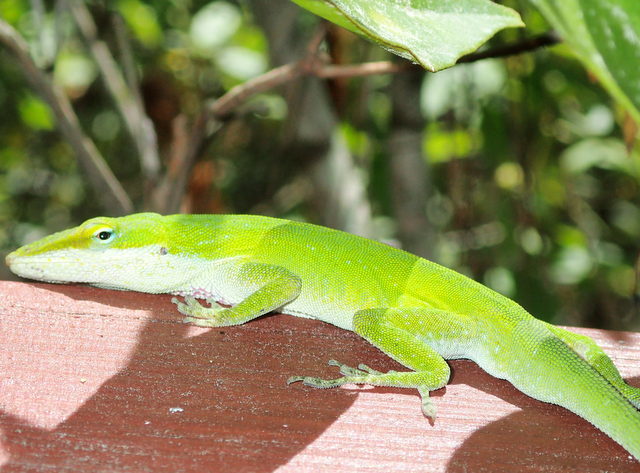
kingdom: Animalia
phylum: Chordata
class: Squamata
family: Dactyloidae
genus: Anolis
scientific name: Anolis carolinensis
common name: Green anole
